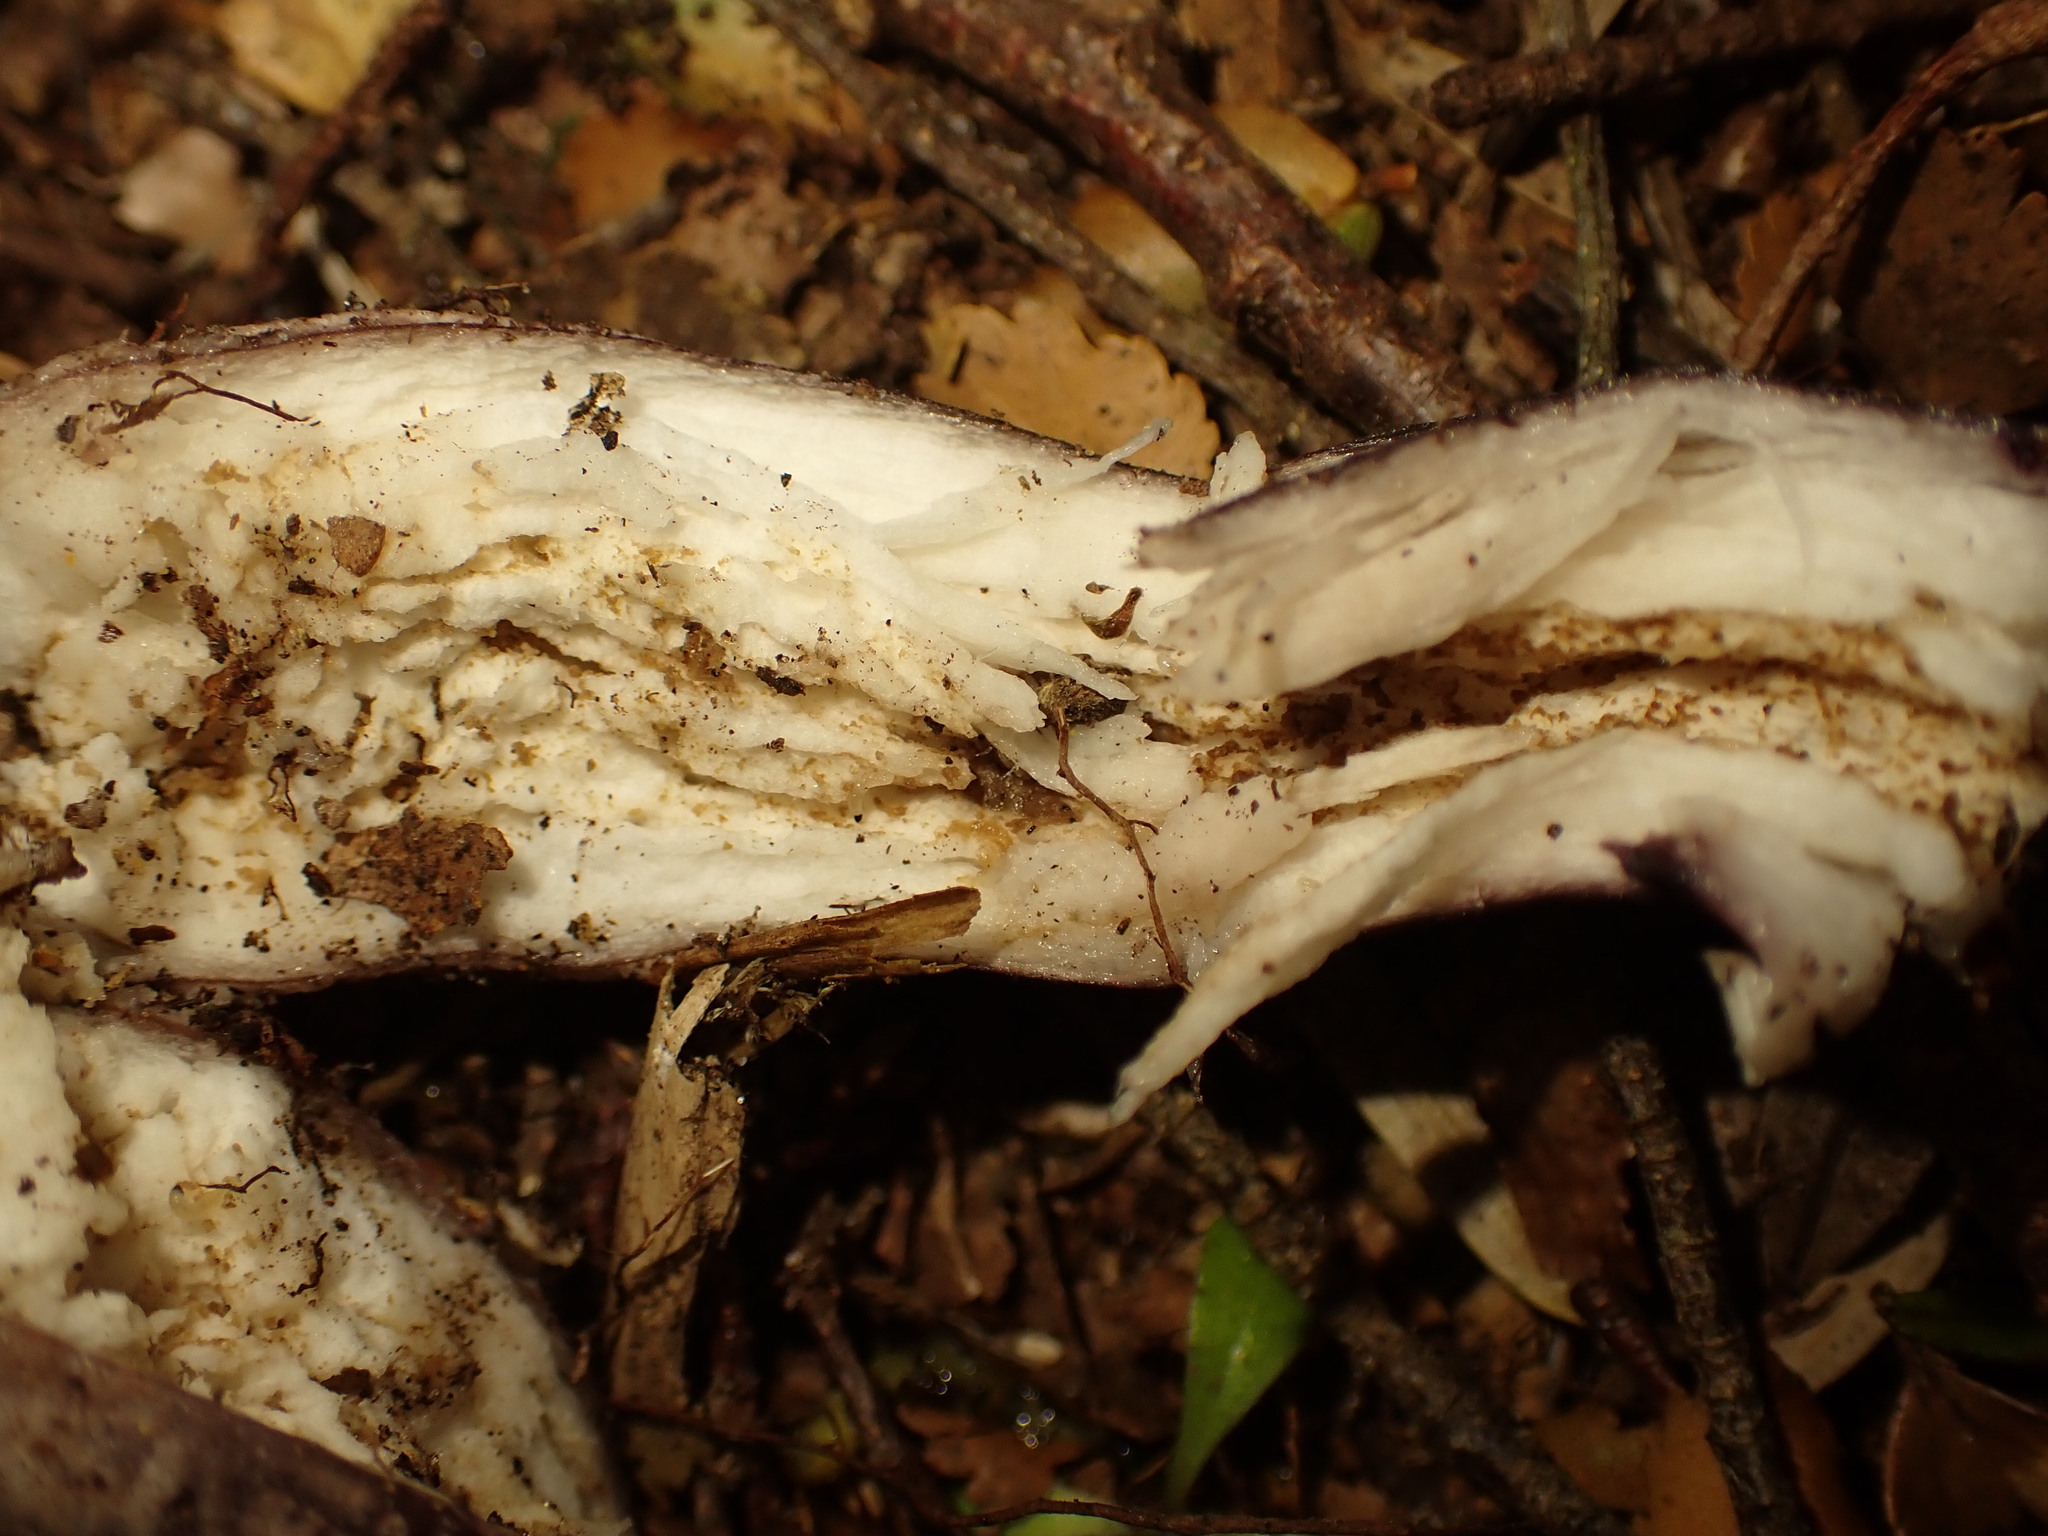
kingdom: Fungi
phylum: Basidiomycota
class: Agaricomycetes
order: Boletales
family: Boletaceae
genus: Porphyrellus
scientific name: Porphyrellus formosus
